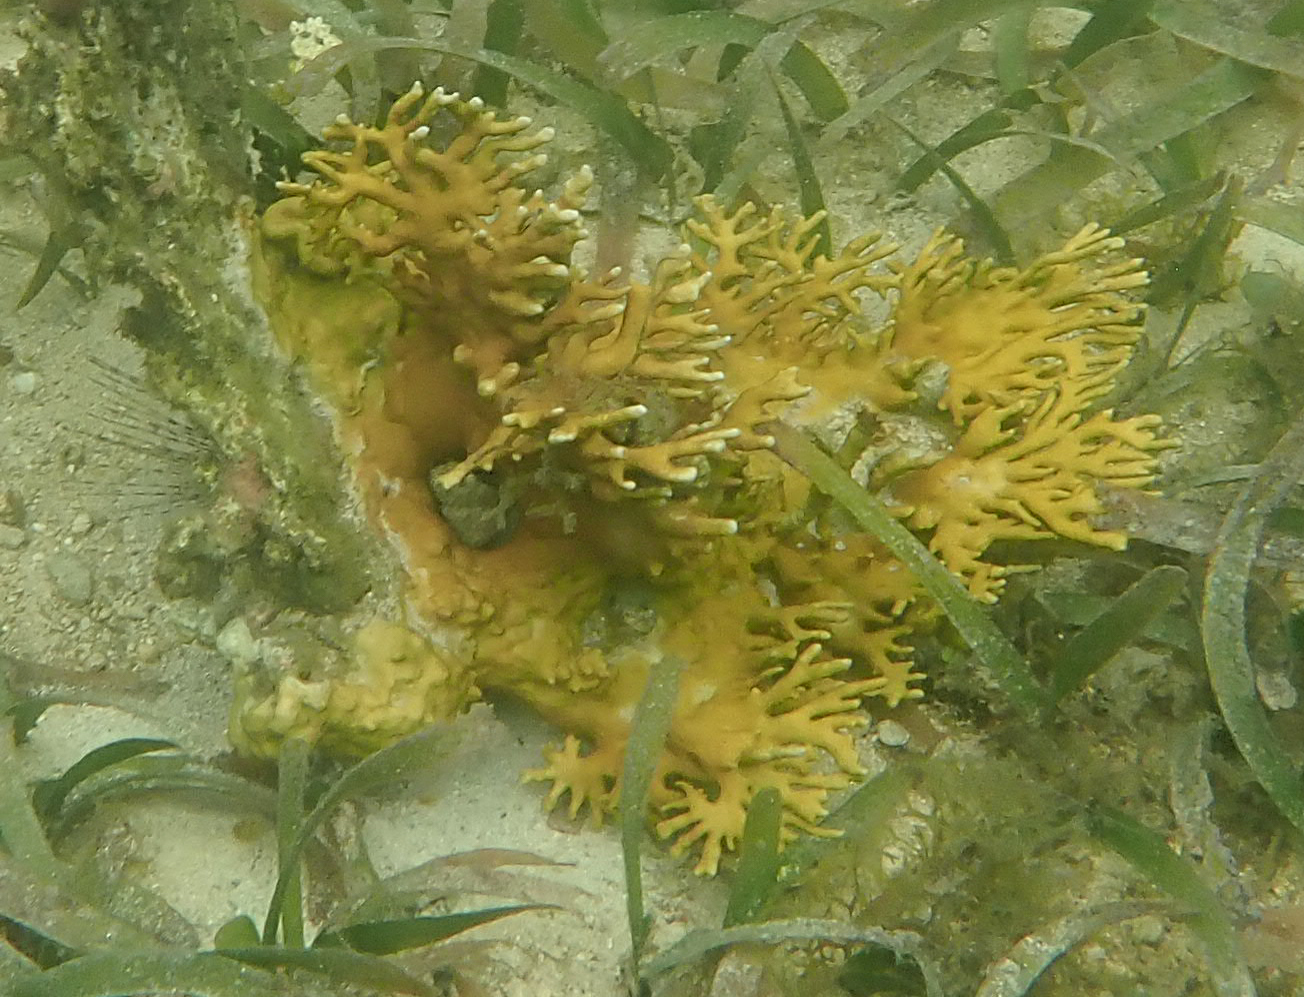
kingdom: Animalia
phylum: Cnidaria
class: Hydrozoa
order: Anthoathecata
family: Milleporidae
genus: Millepora
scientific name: Millepora alcicornis
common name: Branching fire coral
